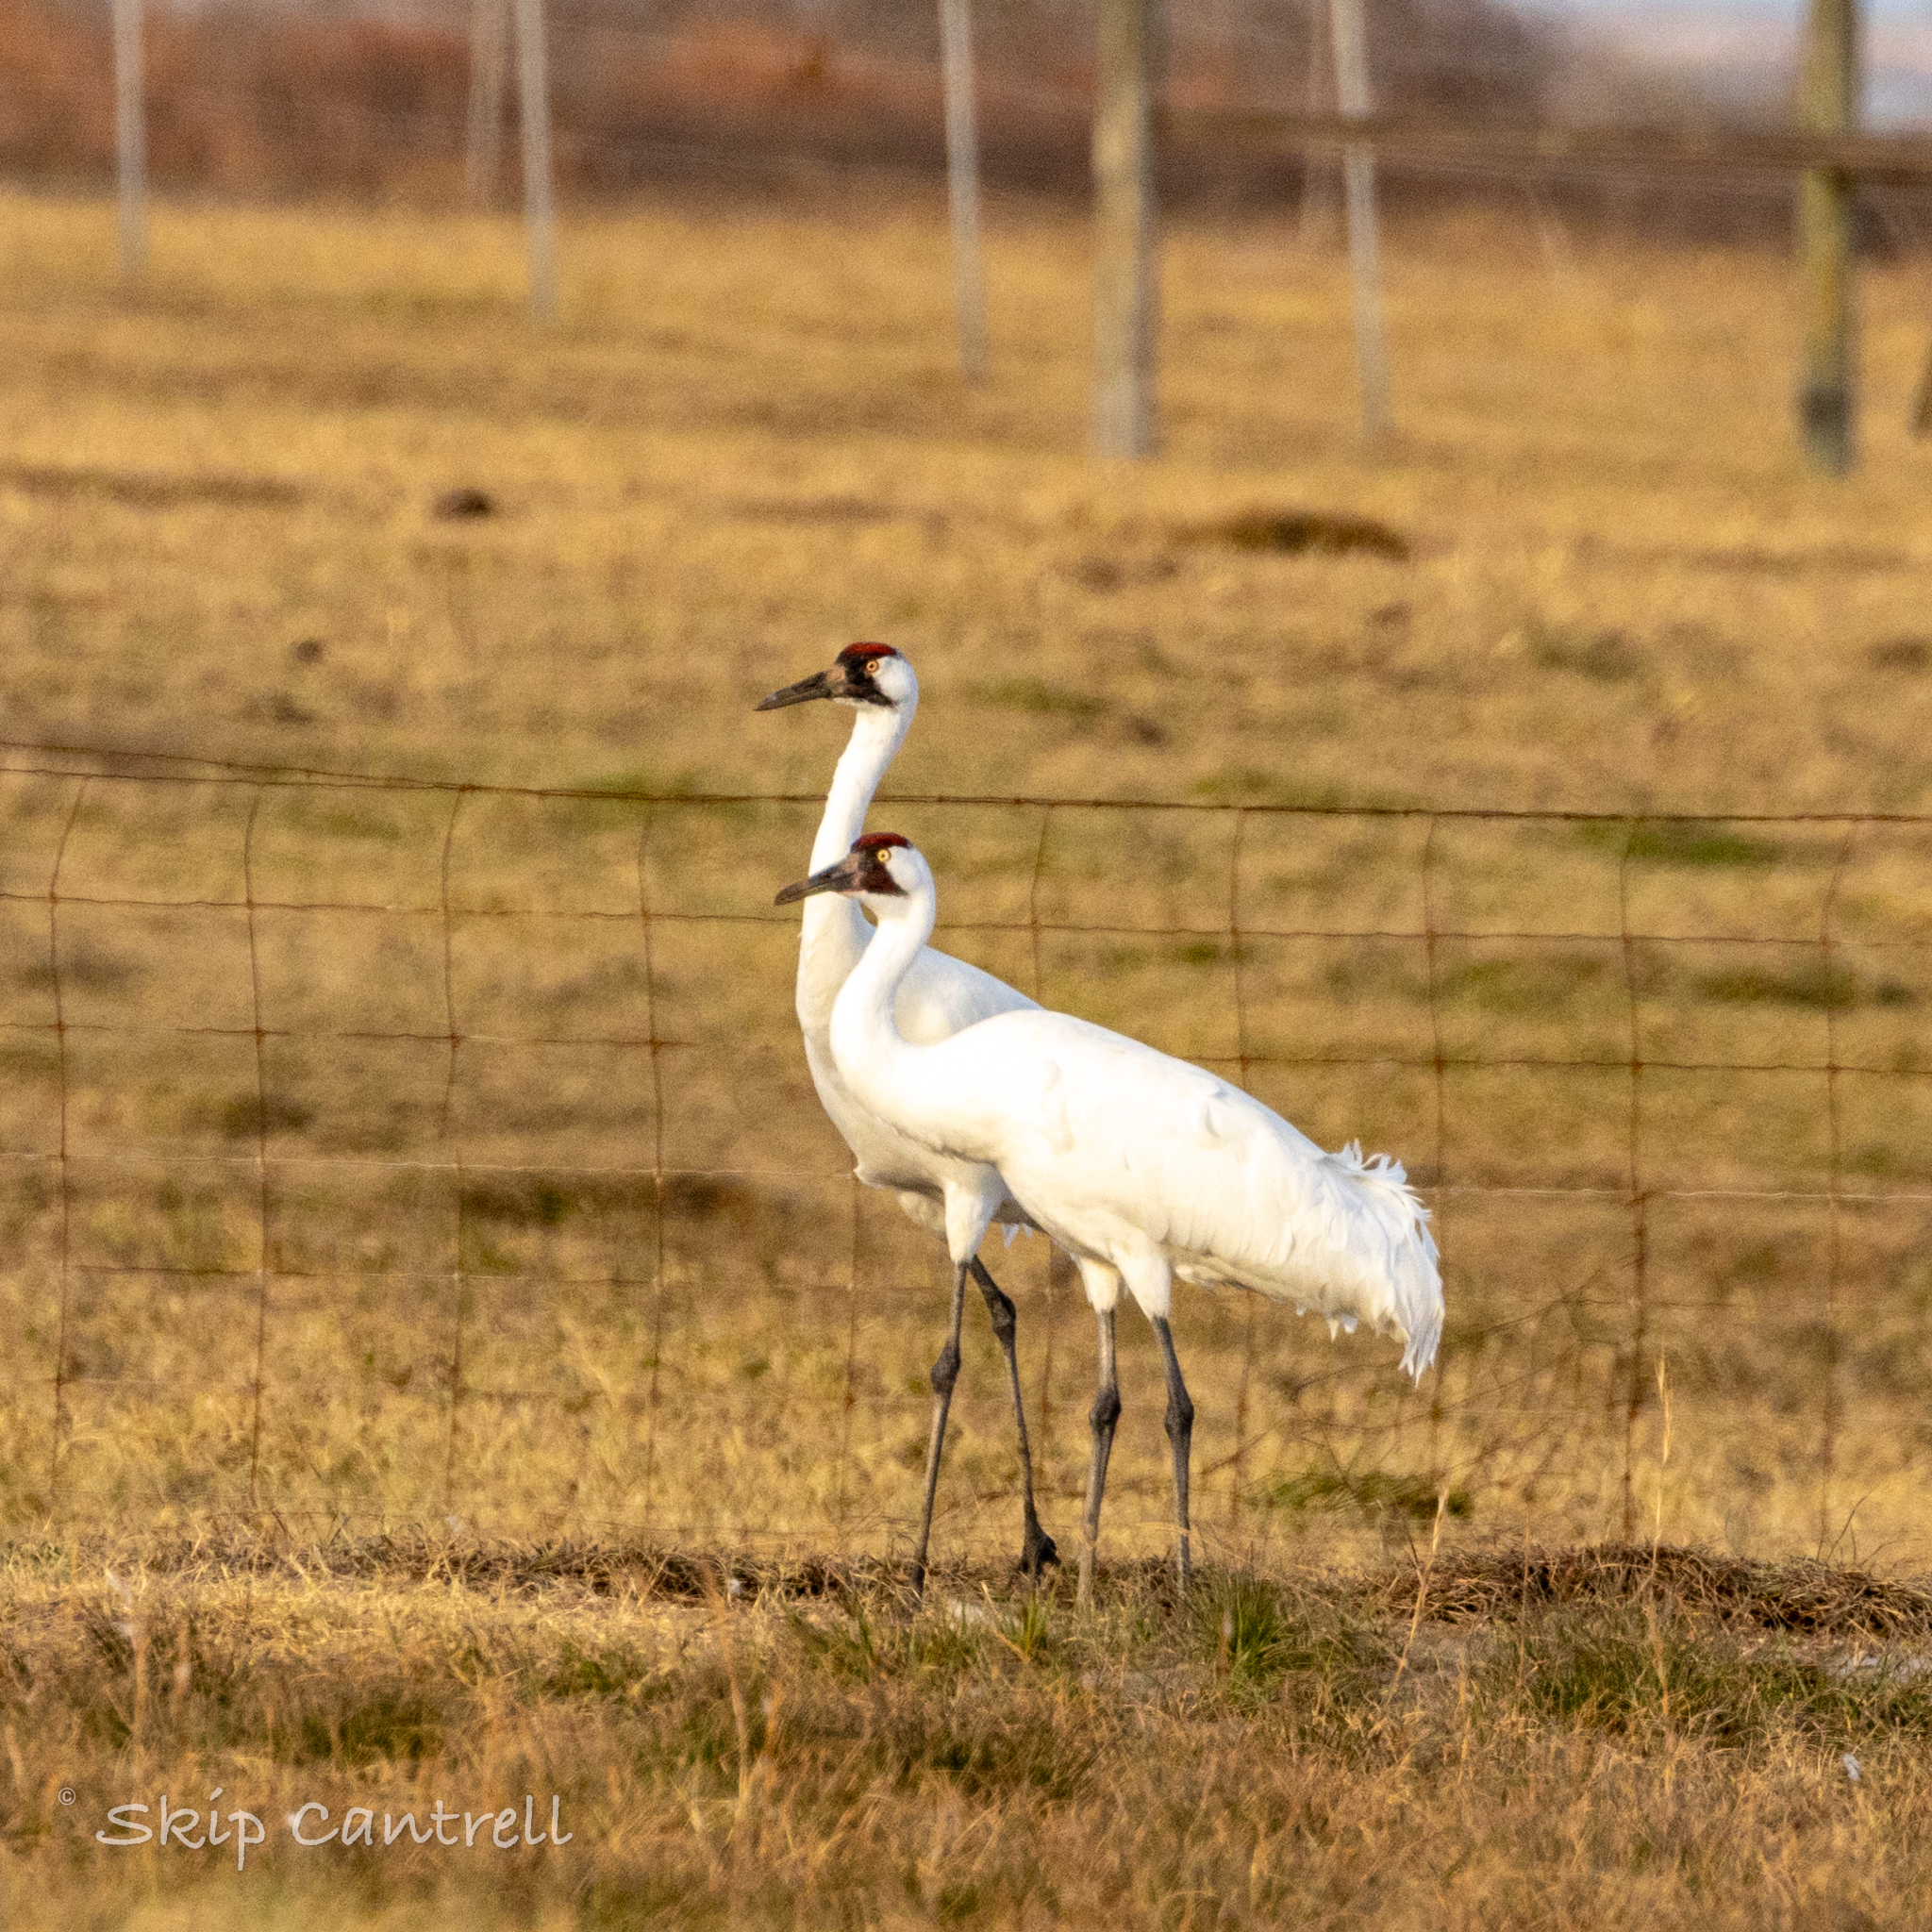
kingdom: Animalia
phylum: Chordata
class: Aves
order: Gruiformes
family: Gruidae
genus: Grus
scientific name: Grus americana
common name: Whooping crane
